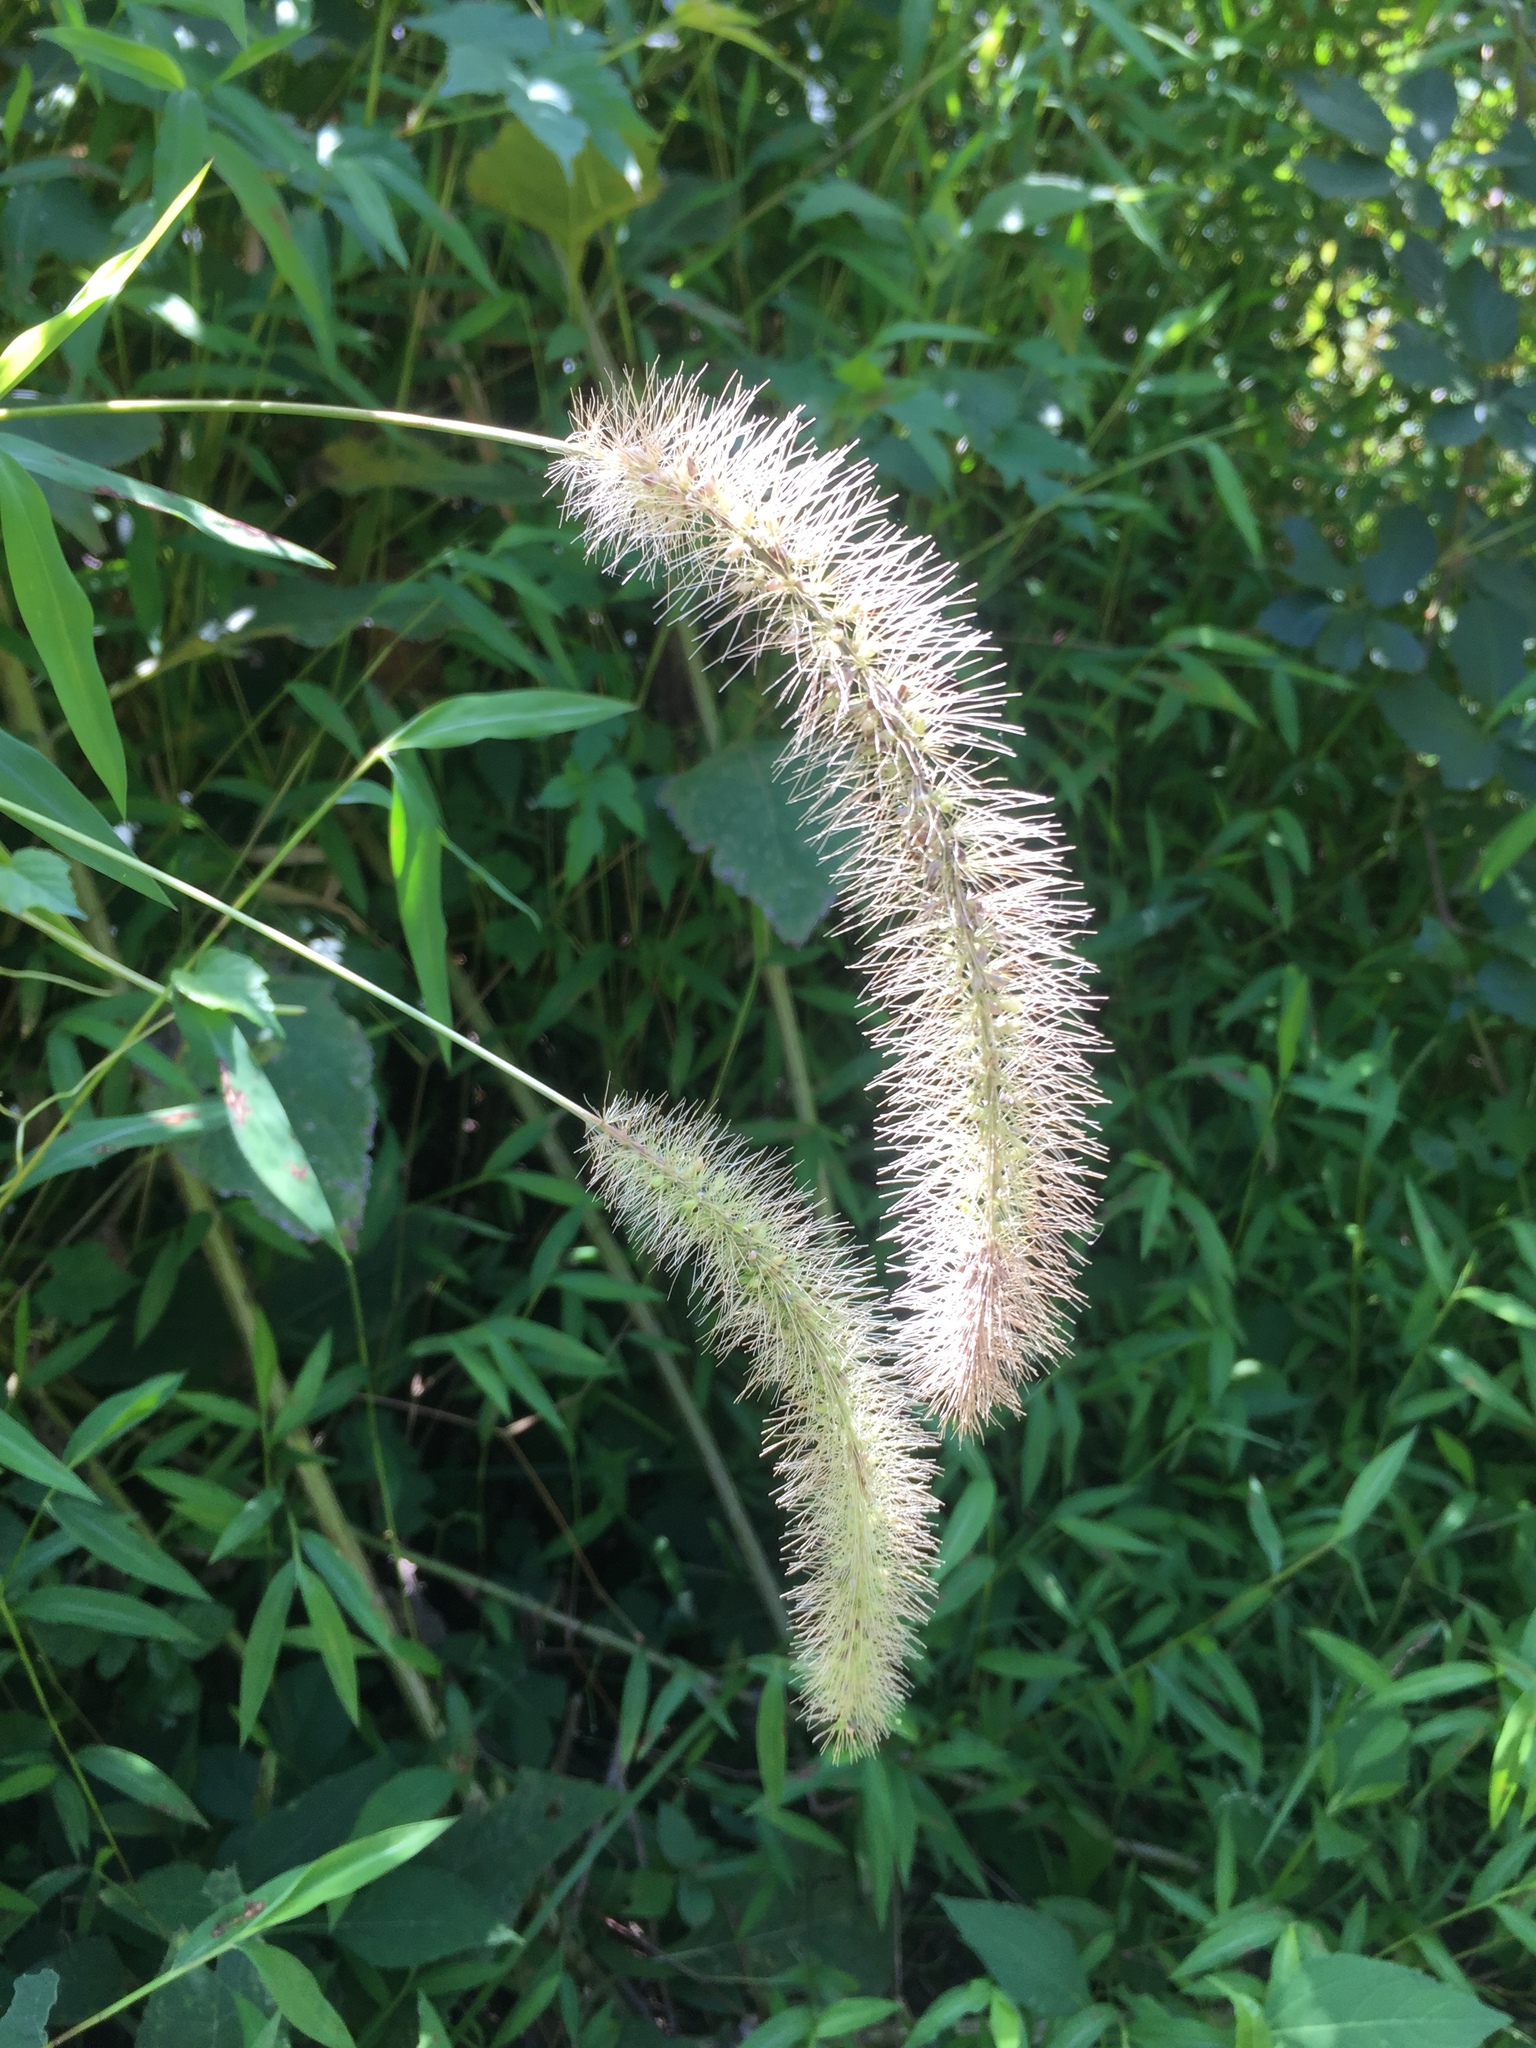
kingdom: Plantae
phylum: Tracheophyta
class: Liliopsida
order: Poales
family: Poaceae
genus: Setaria
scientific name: Setaria faberi
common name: Nodding bristle-grass
